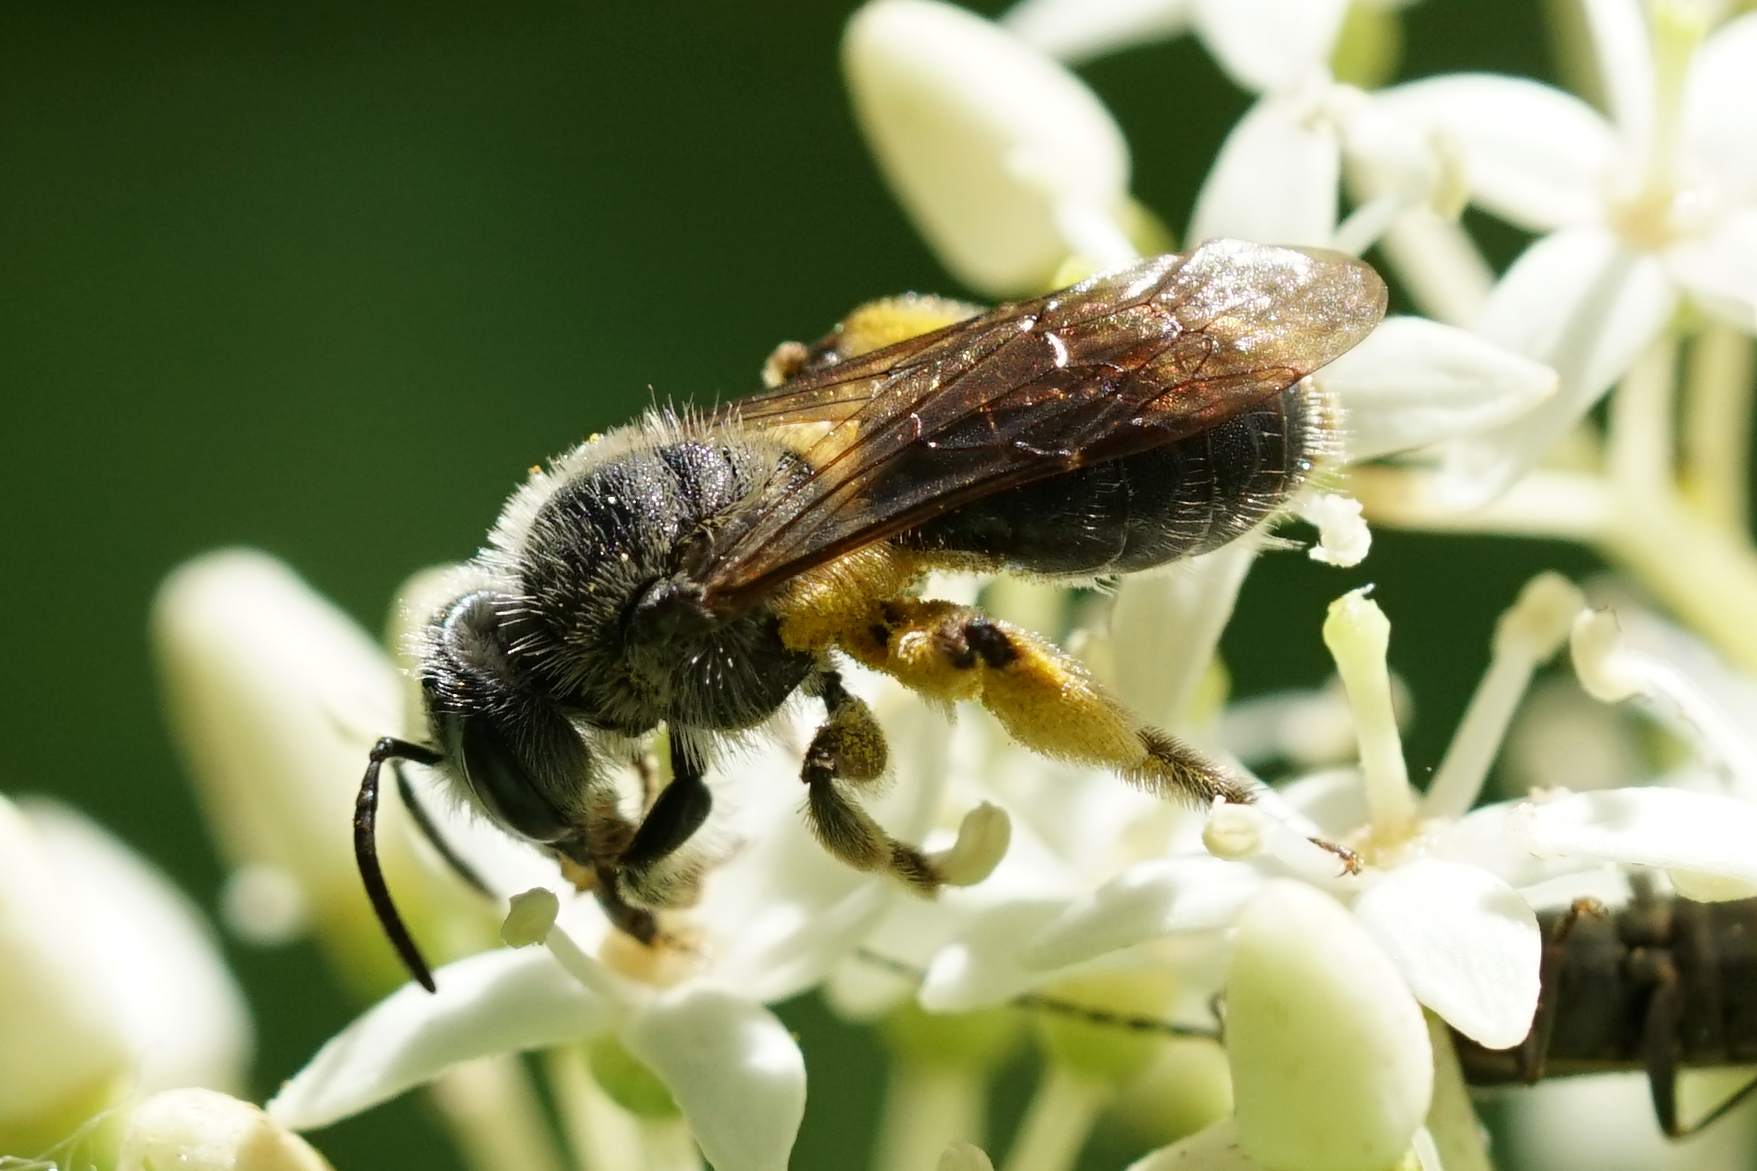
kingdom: Animalia
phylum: Arthropoda
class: Insecta
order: Hymenoptera
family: Andrenidae
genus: Andrena
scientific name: Andrena
